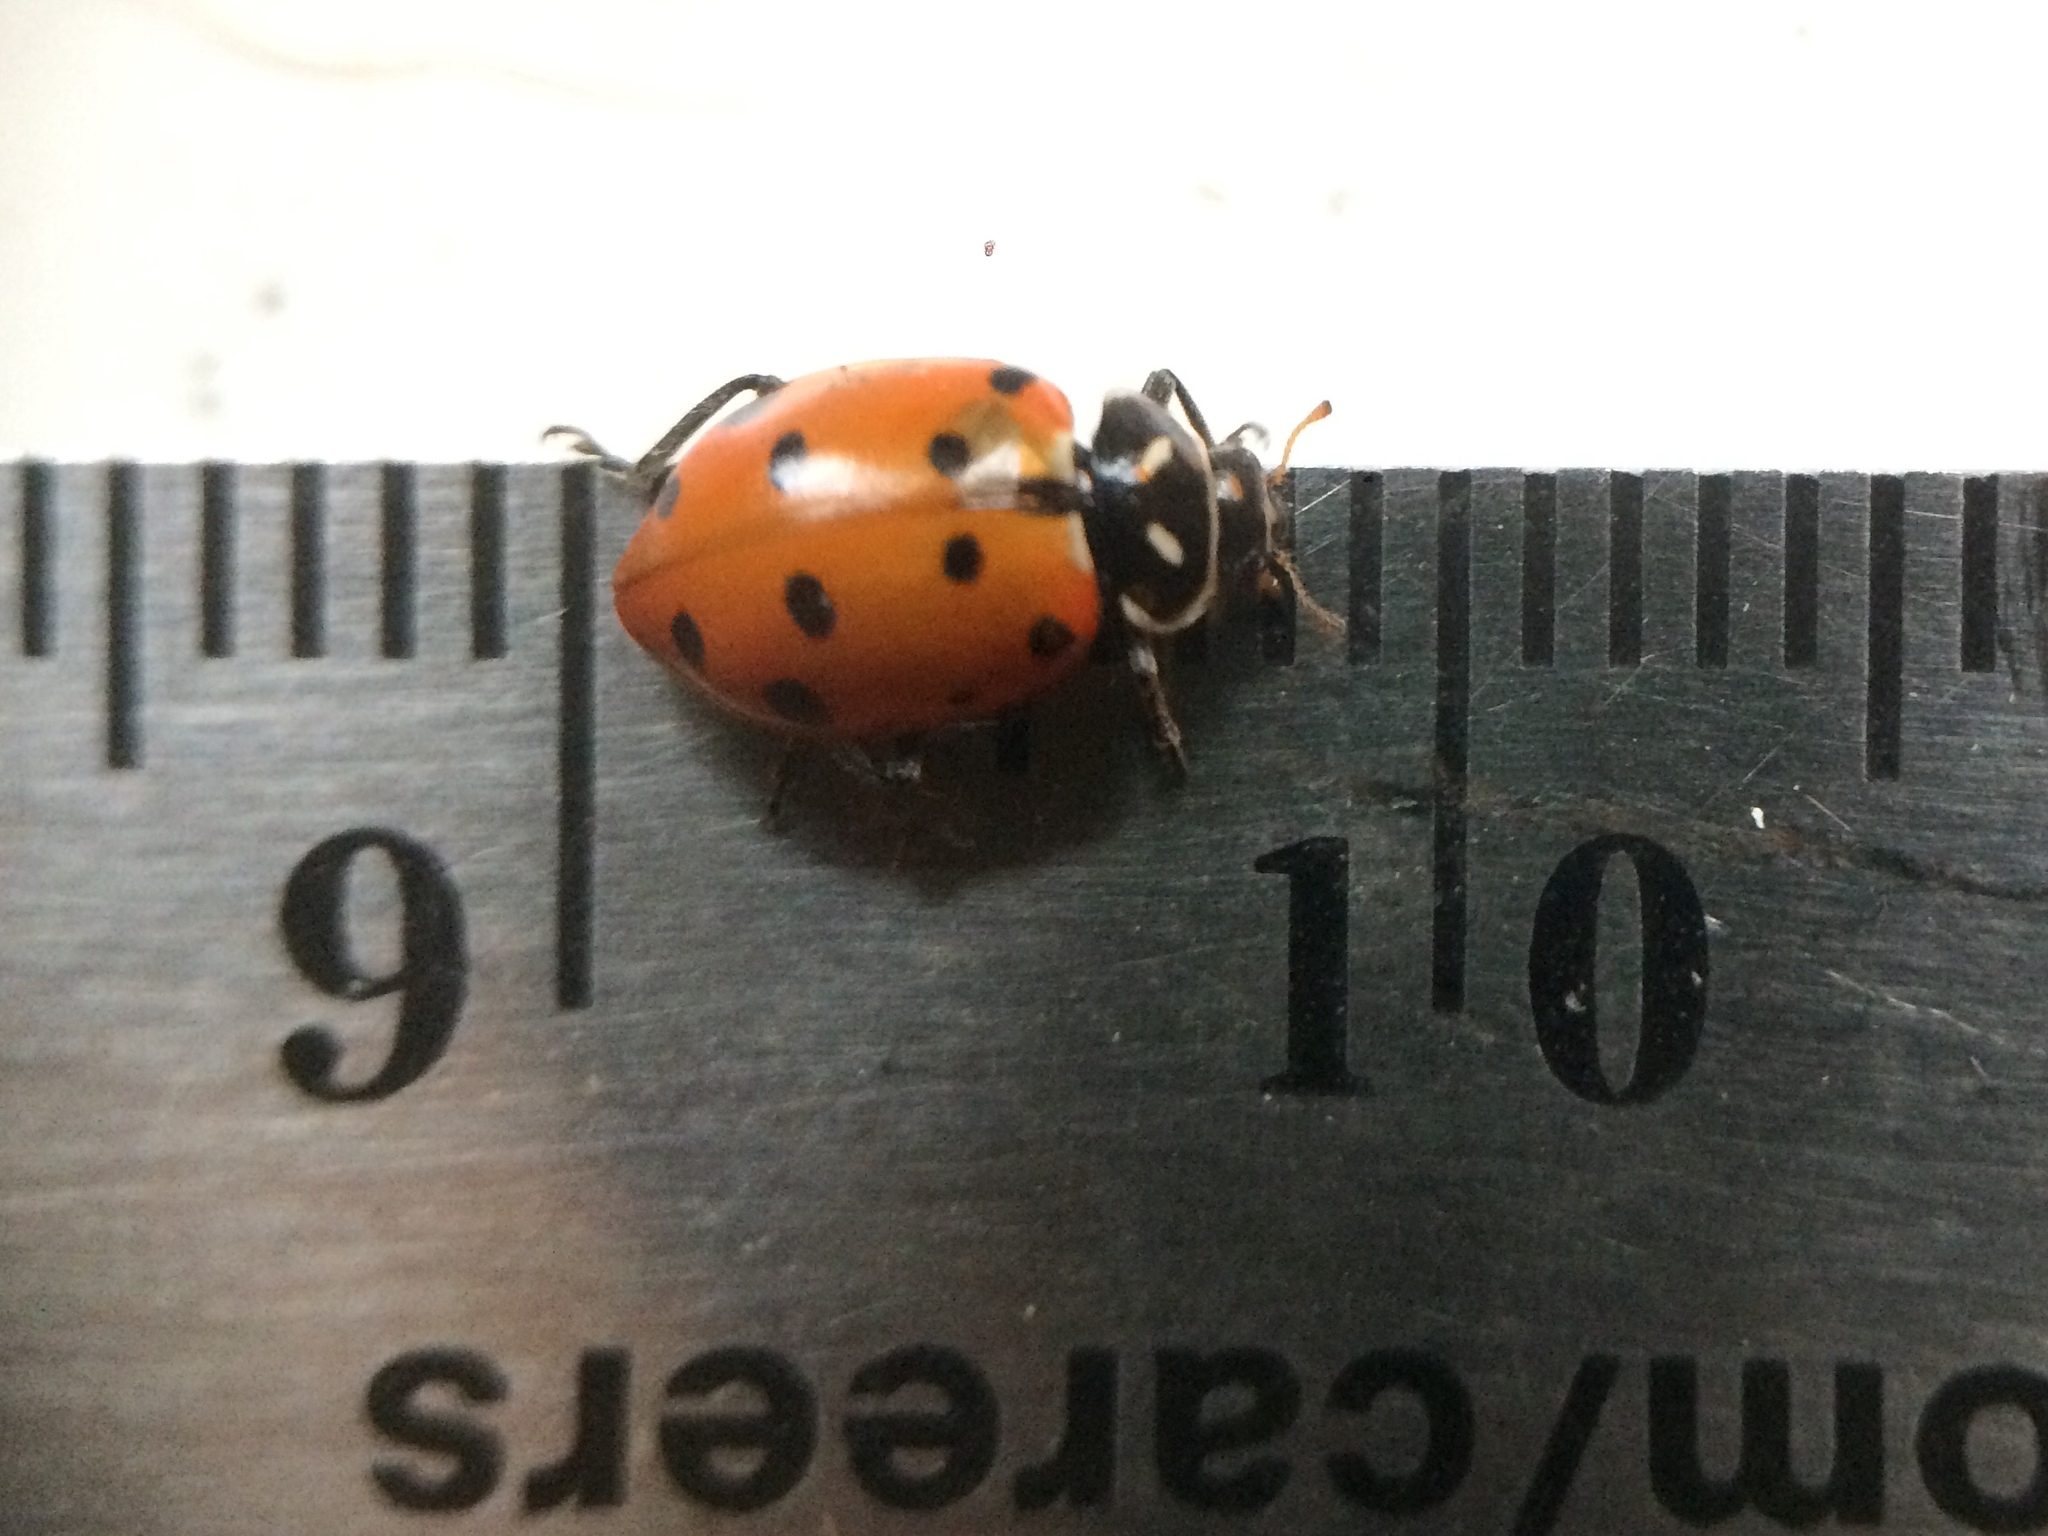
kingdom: Animalia
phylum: Arthropoda
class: Insecta
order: Coleoptera
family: Coccinellidae
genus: Hippodamia
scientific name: Hippodamia convergens
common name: Convergent lady beetle
